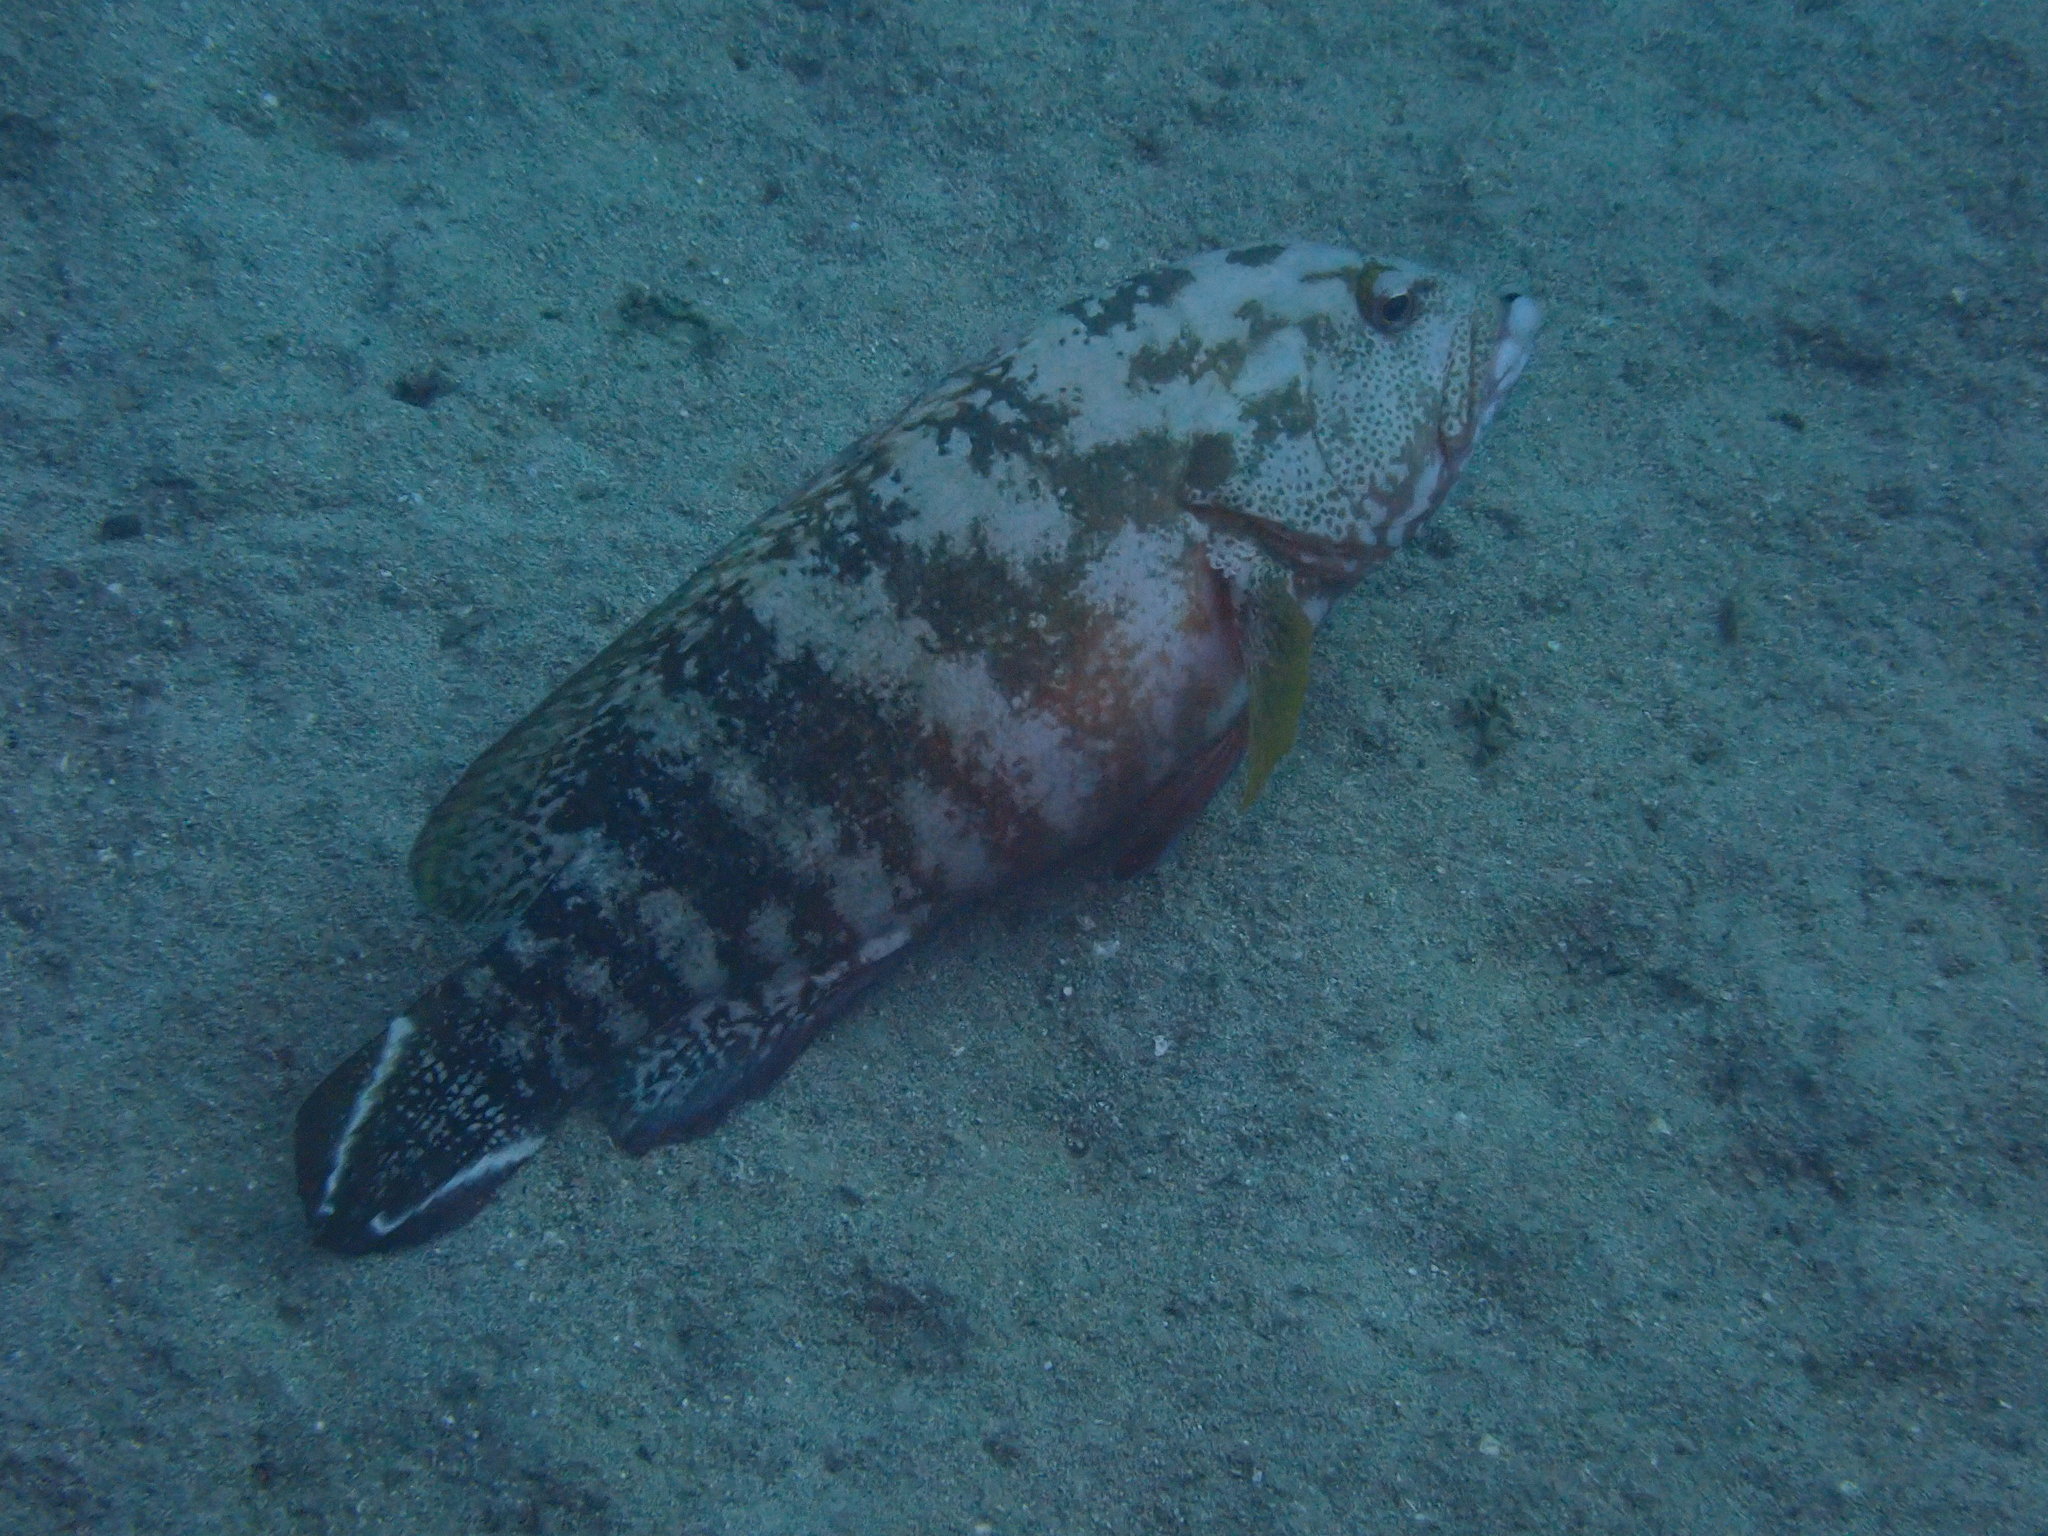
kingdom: Animalia
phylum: Chordata
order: Perciformes
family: Serranidae
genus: Cephalopholis
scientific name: Cephalopholis urodeta
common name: Darkfin hind
